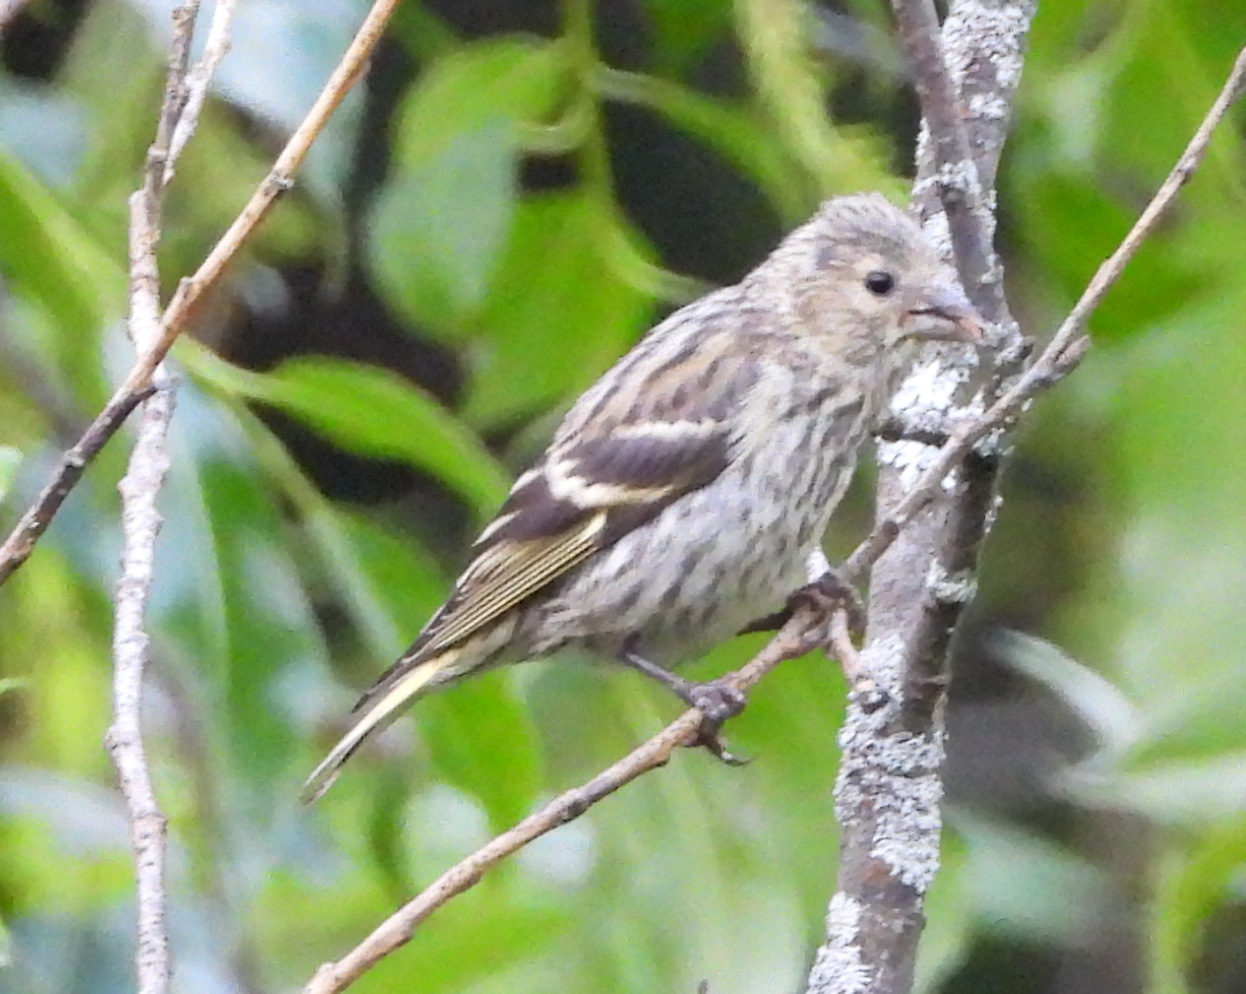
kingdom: Animalia
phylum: Chordata
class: Aves
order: Passeriformes
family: Fringillidae
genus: Spinus
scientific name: Spinus spinus
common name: Eurasian siskin
